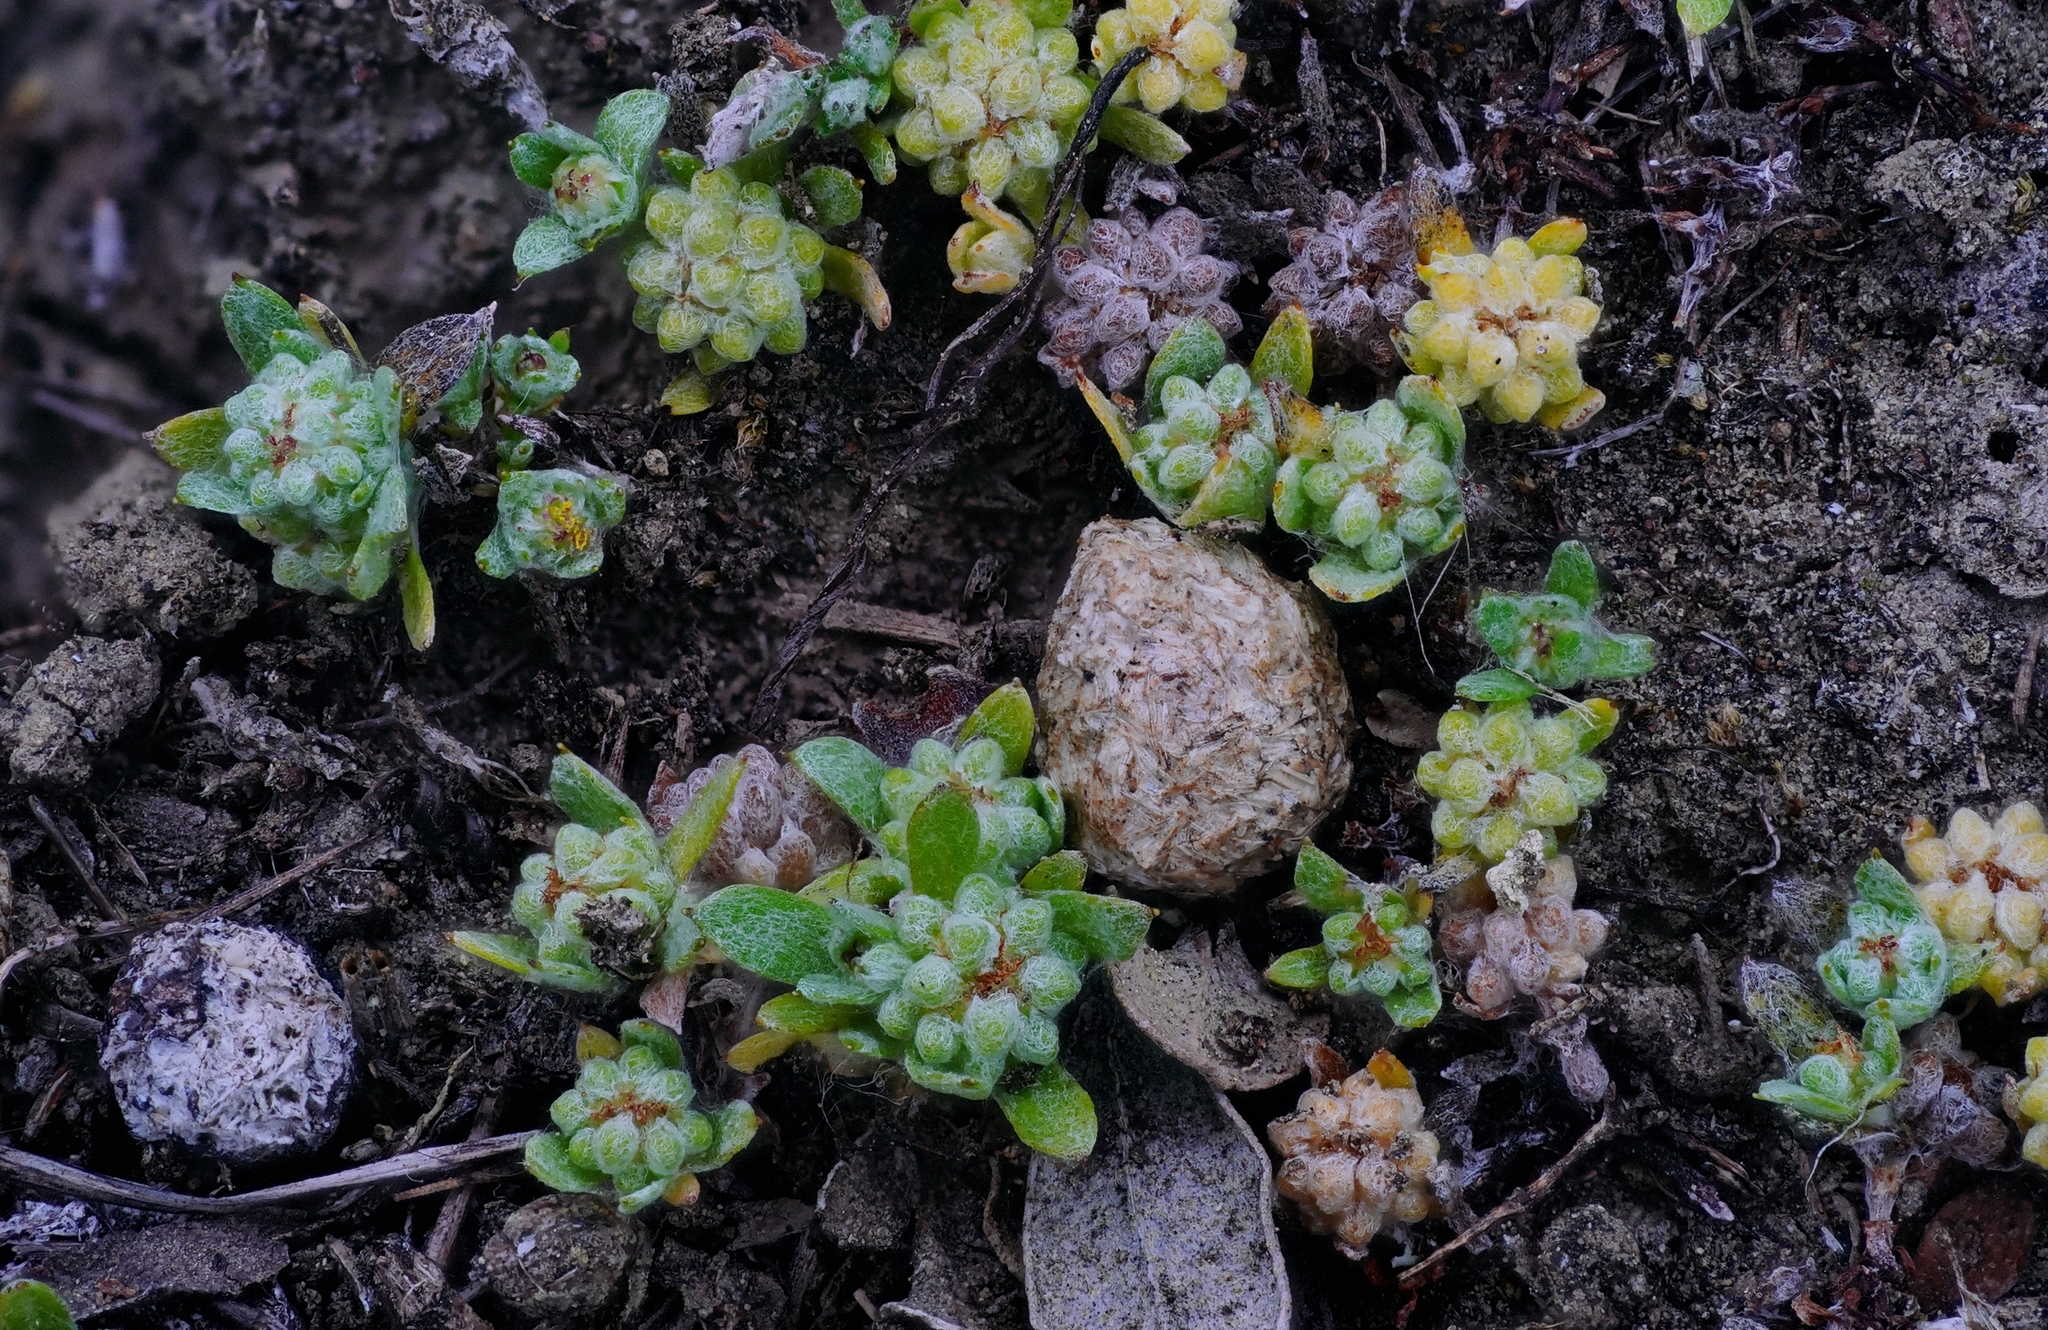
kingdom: Plantae
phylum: Tracheophyta
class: Magnoliopsida
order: Asterales
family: Asteraceae
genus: Psilocarphus
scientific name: Psilocarphus tenellus
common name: Slender woolly-marbles
